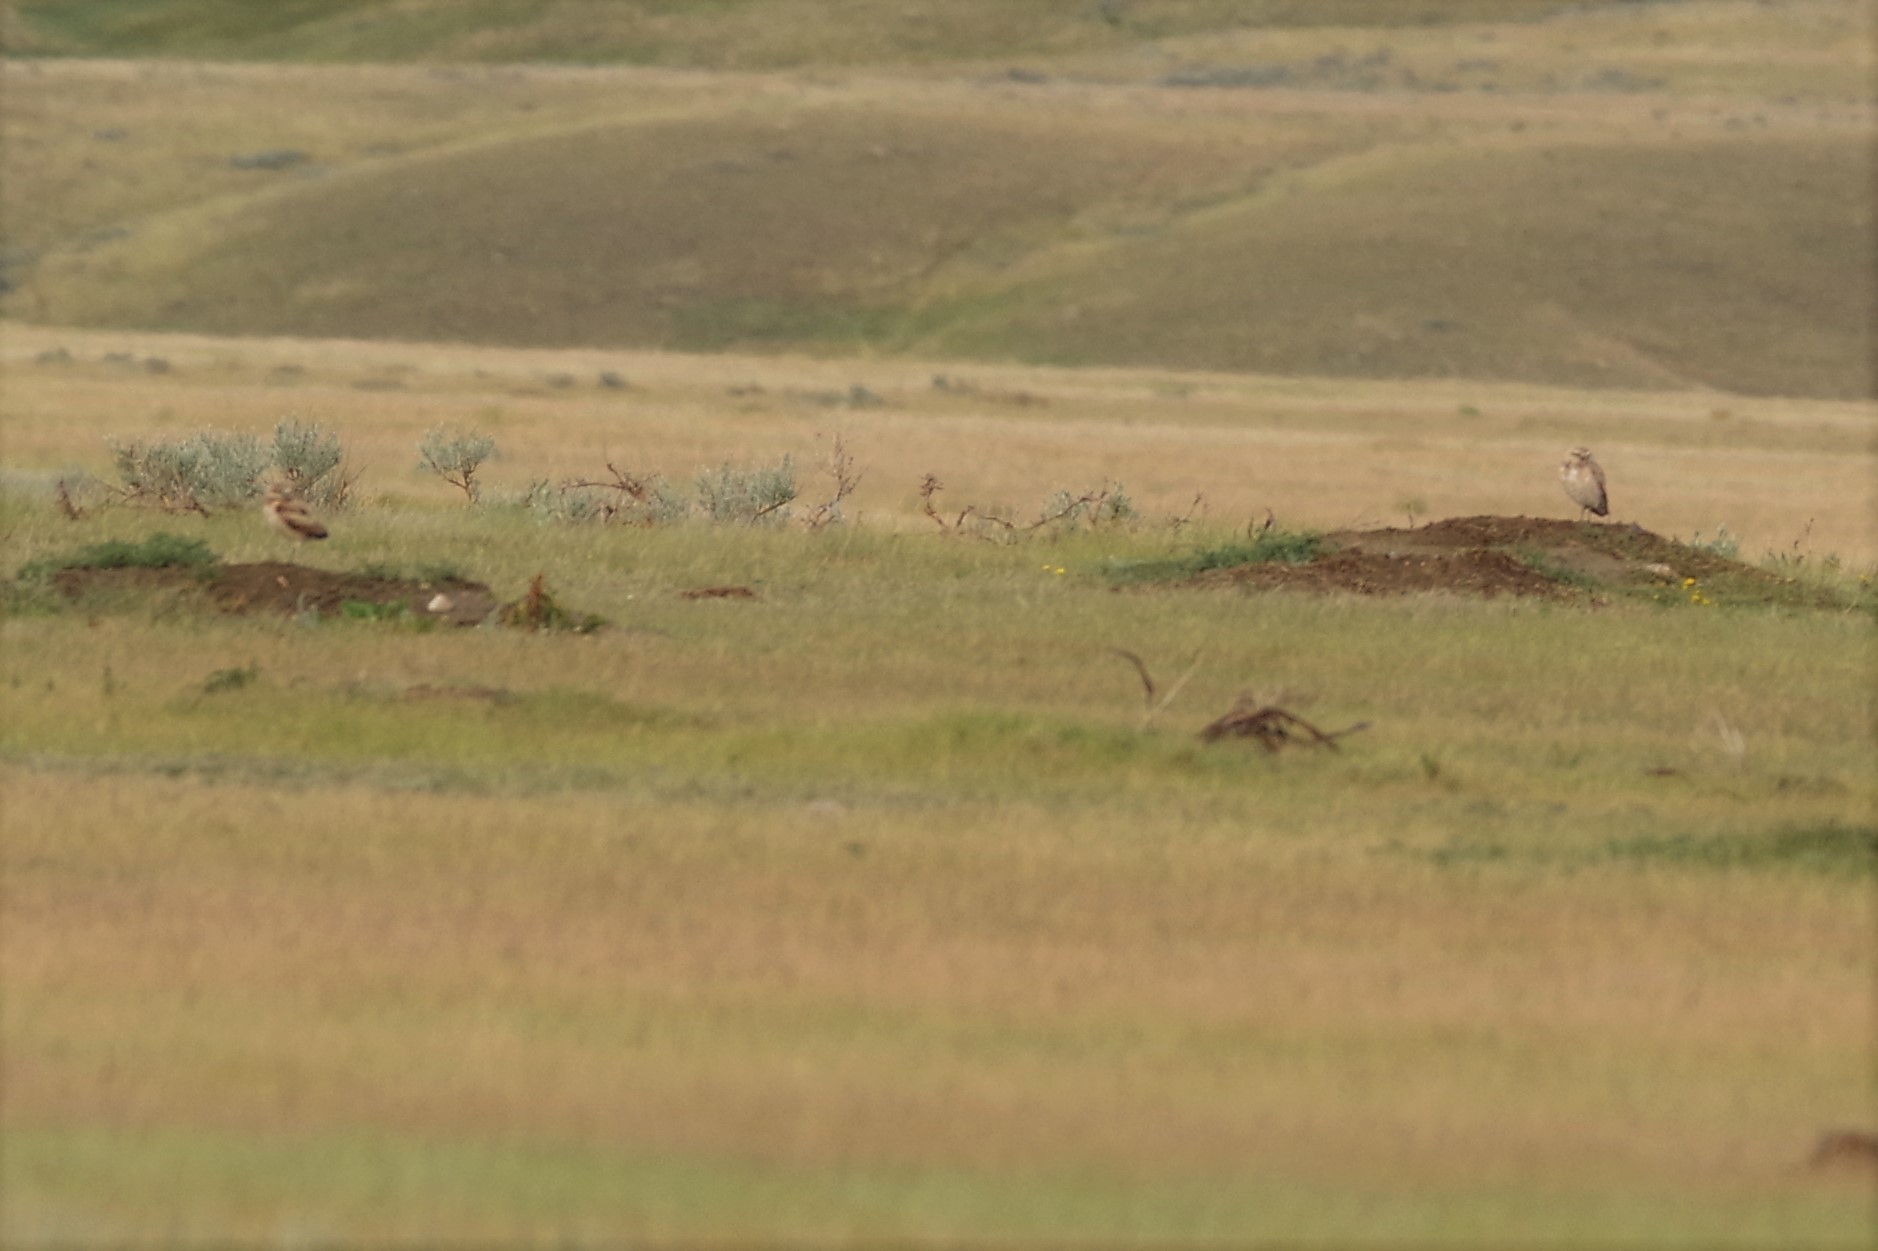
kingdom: Animalia
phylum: Chordata
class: Aves
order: Strigiformes
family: Strigidae
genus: Athene
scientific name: Athene cunicularia
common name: Burrowing owl
